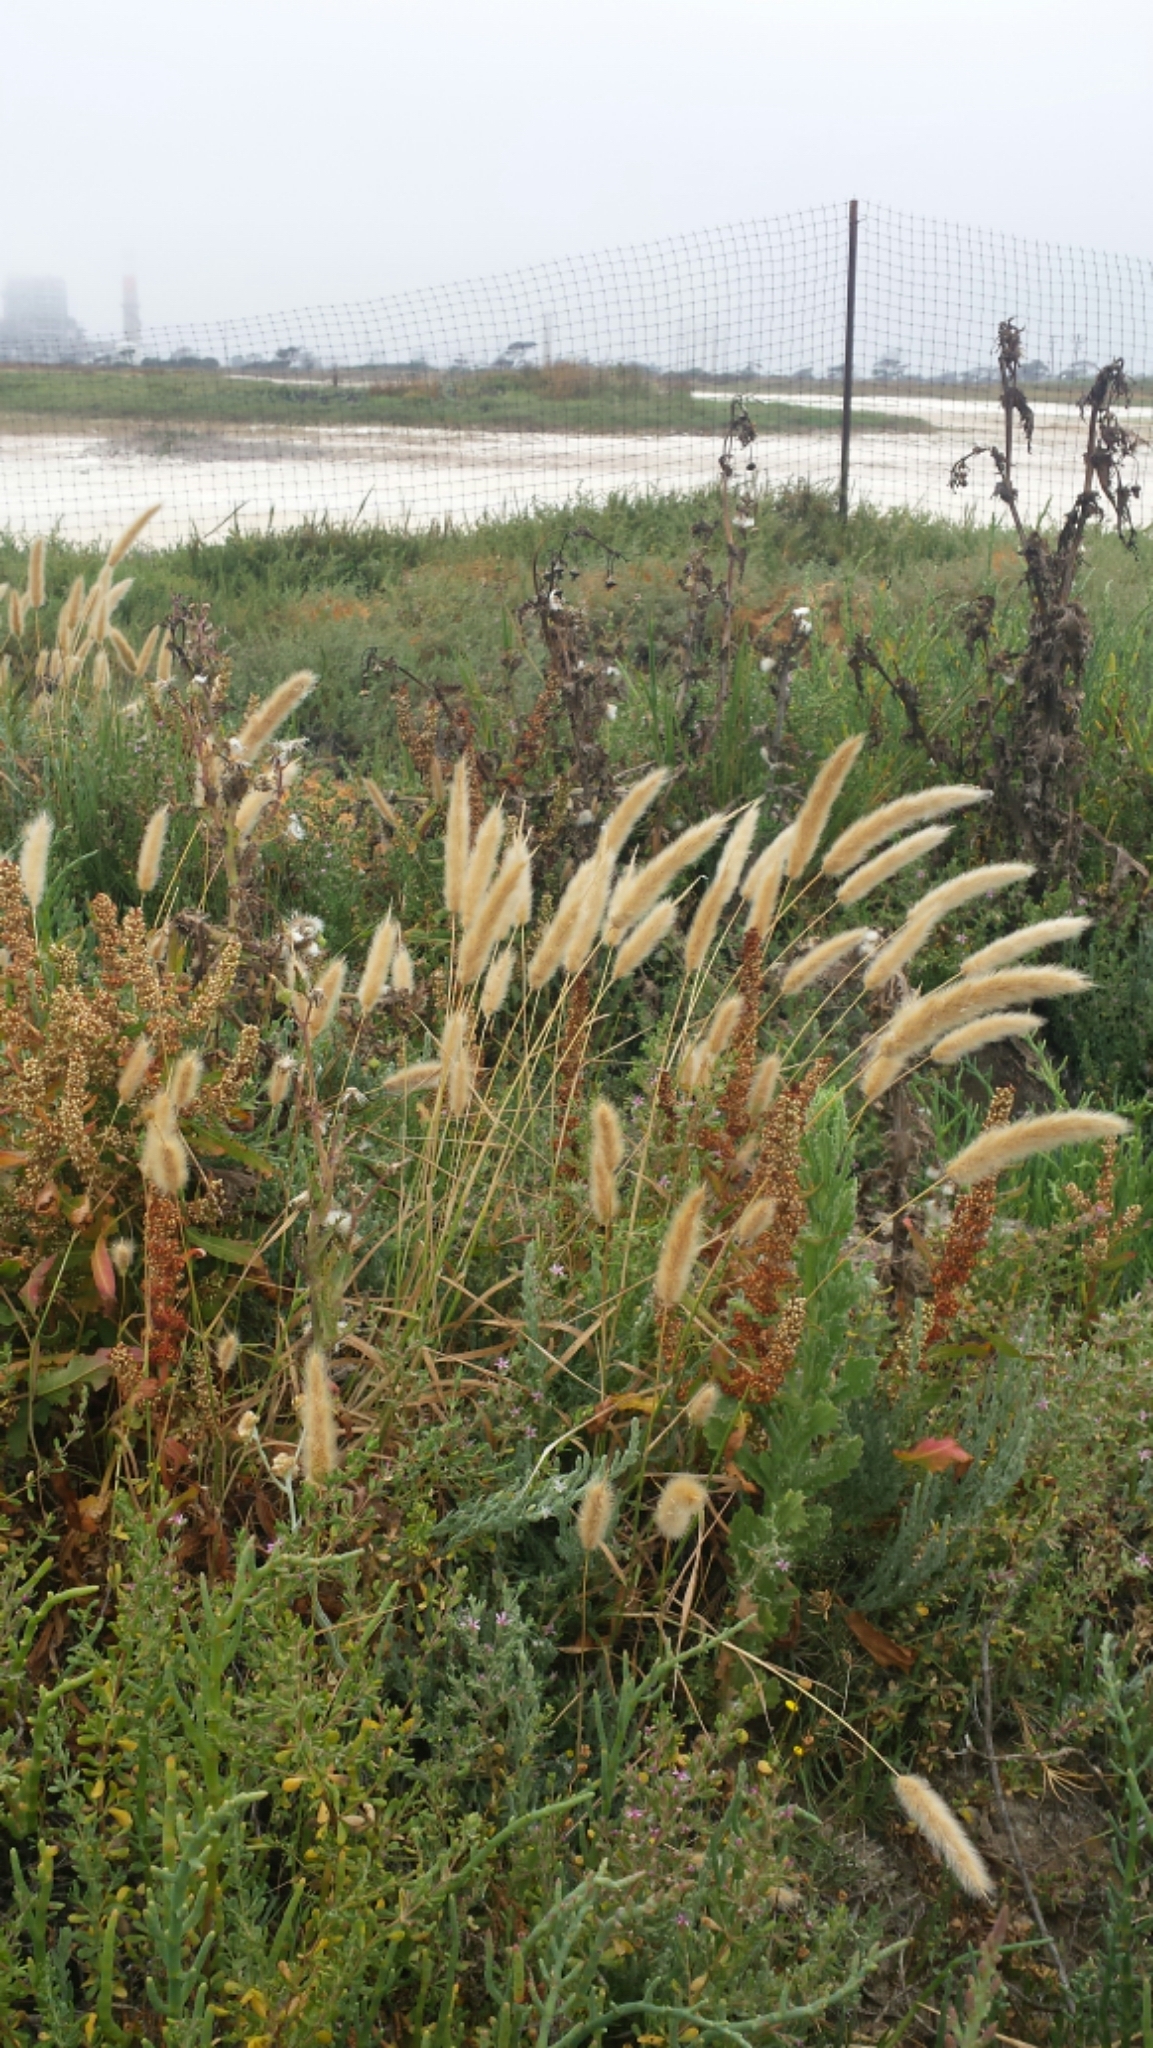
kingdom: Plantae
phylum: Tracheophyta
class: Liliopsida
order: Poales
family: Poaceae
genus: Polypogon
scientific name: Polypogon monspeliensis
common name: Annual rabbitsfoot grass
